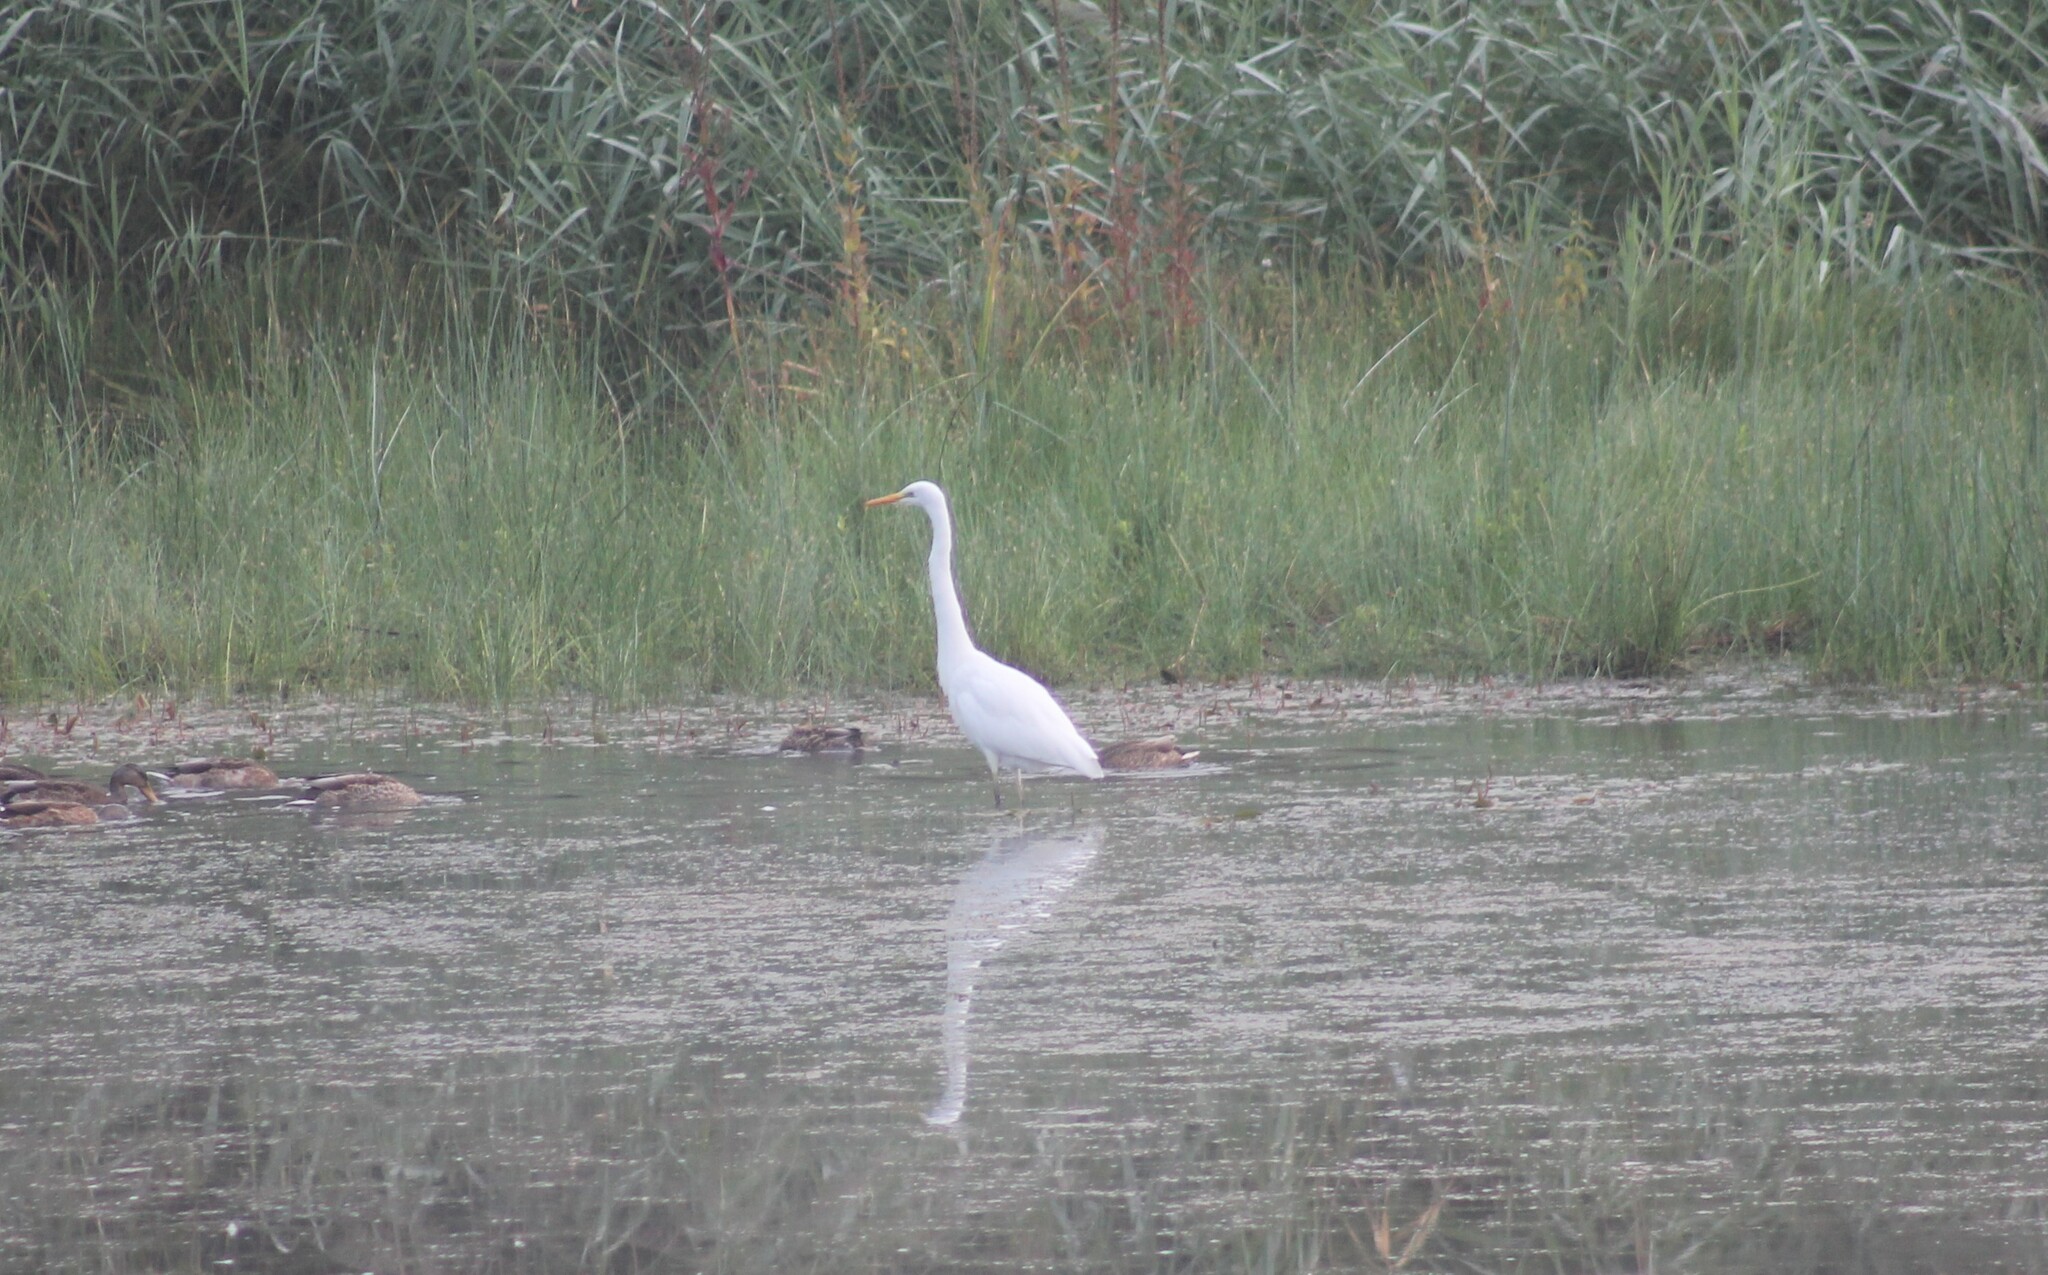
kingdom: Animalia
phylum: Chordata
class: Aves
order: Pelecaniformes
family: Ardeidae
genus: Ardea
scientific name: Ardea alba
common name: Great egret
